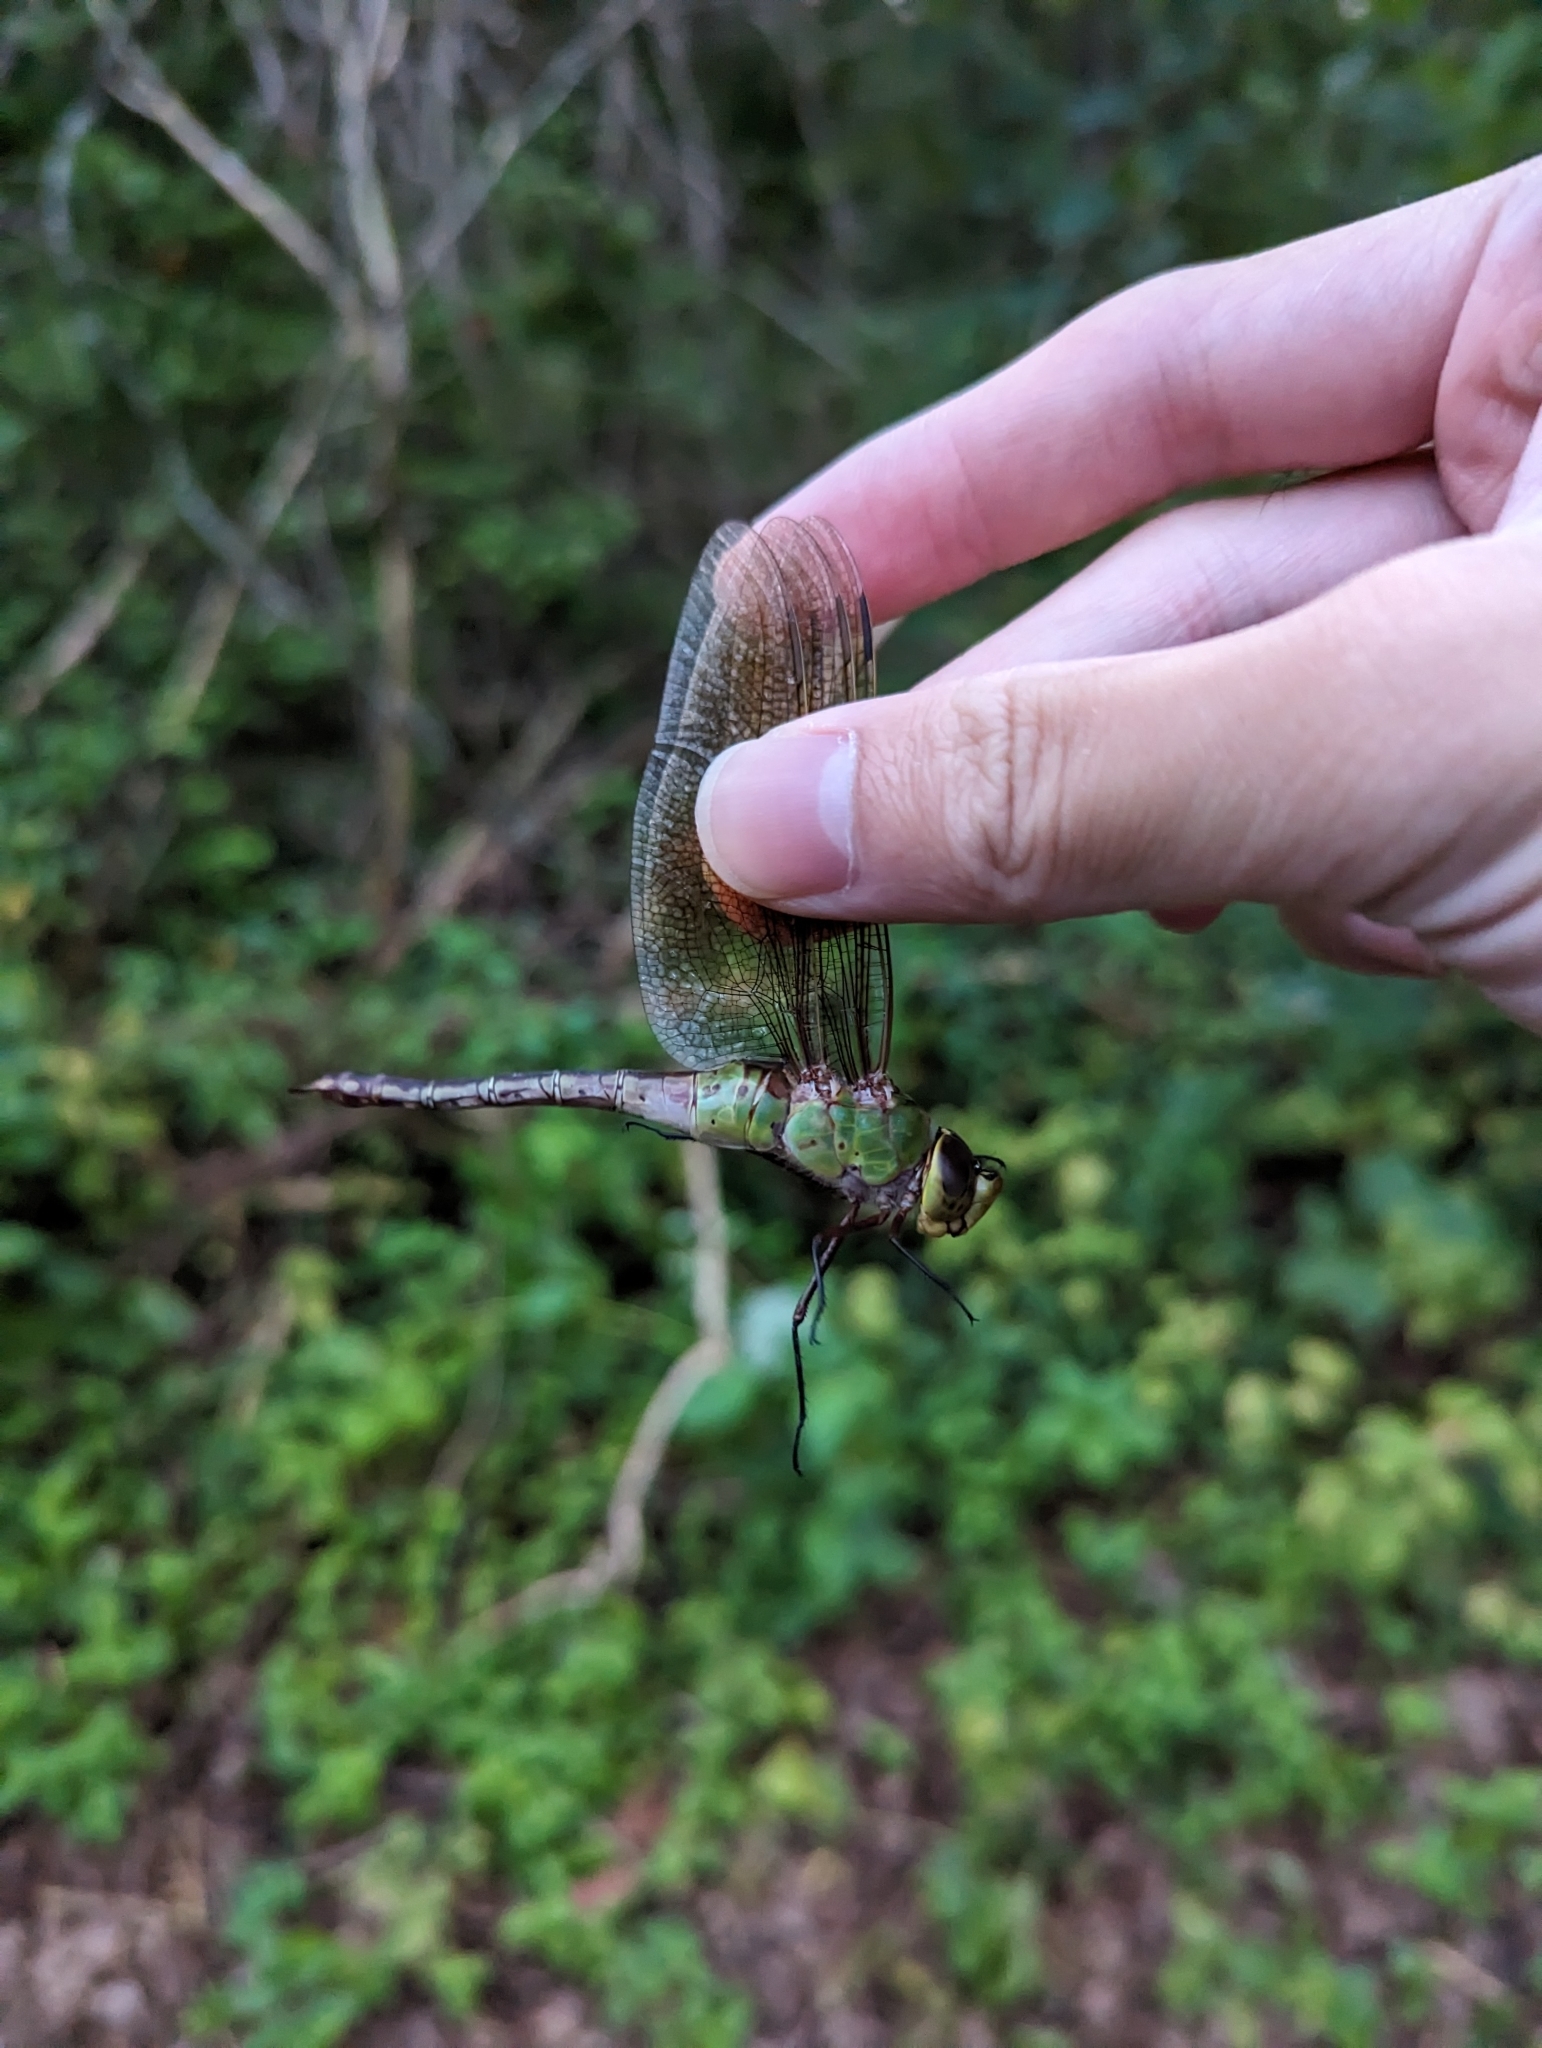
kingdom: Animalia
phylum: Arthropoda
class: Insecta
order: Odonata
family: Aeshnidae
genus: Anax
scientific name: Anax junius
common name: Common green darner
